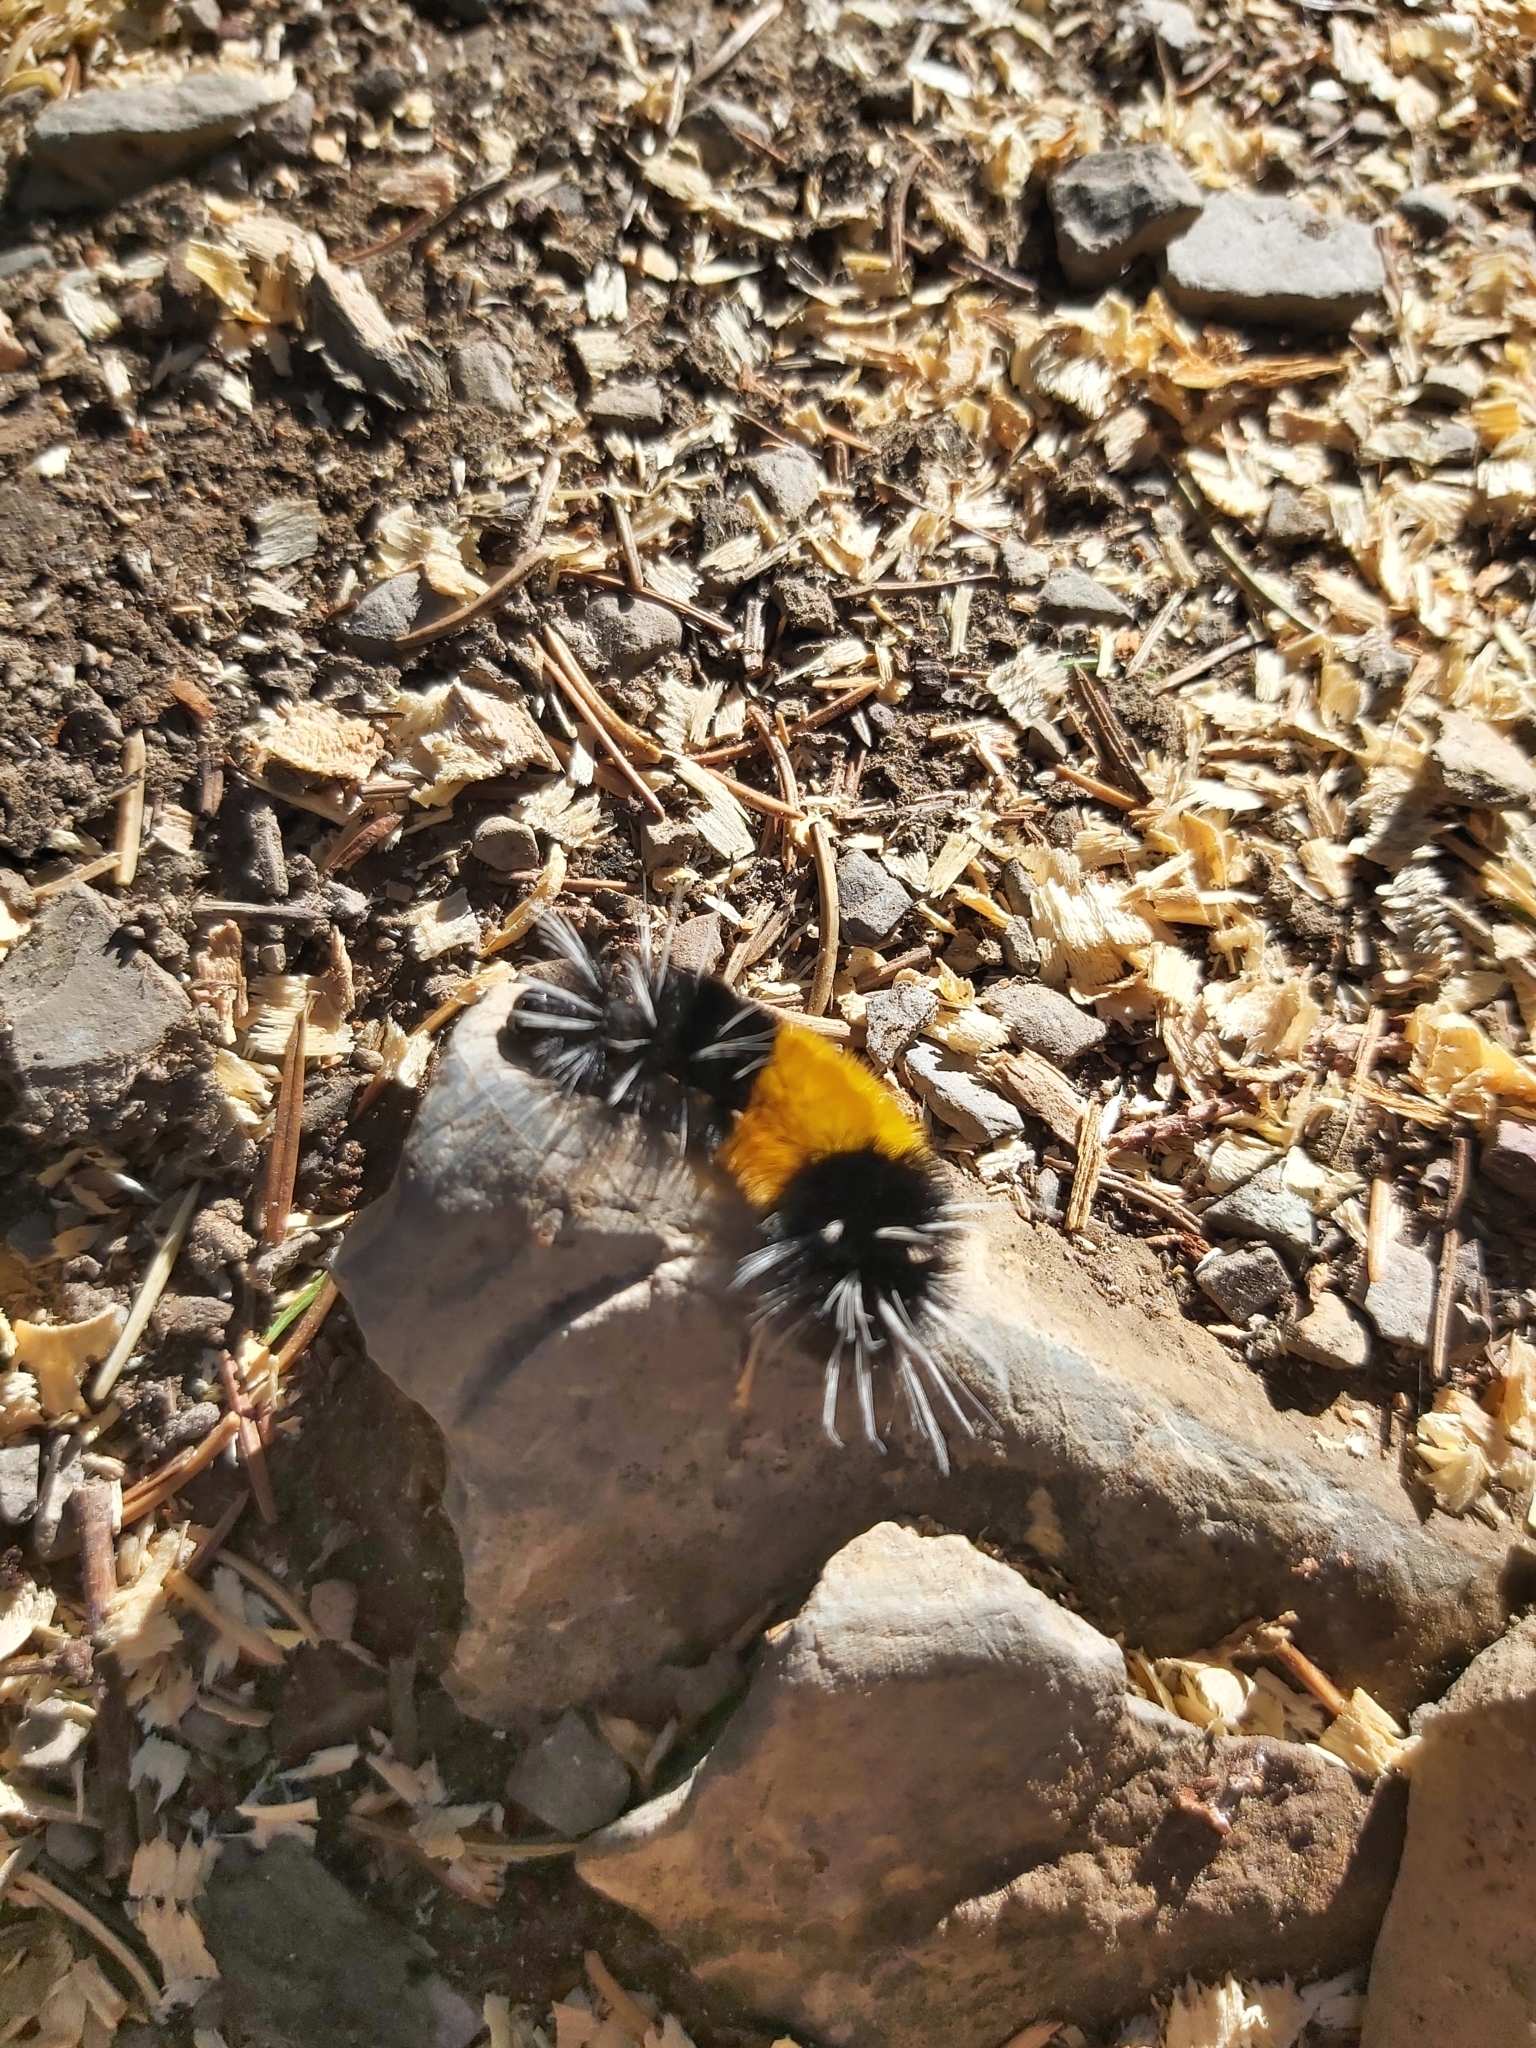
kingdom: Animalia
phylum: Arthropoda
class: Insecta
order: Lepidoptera
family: Erebidae
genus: Lophocampa
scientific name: Lophocampa maculata
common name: Spotted tussock moth
